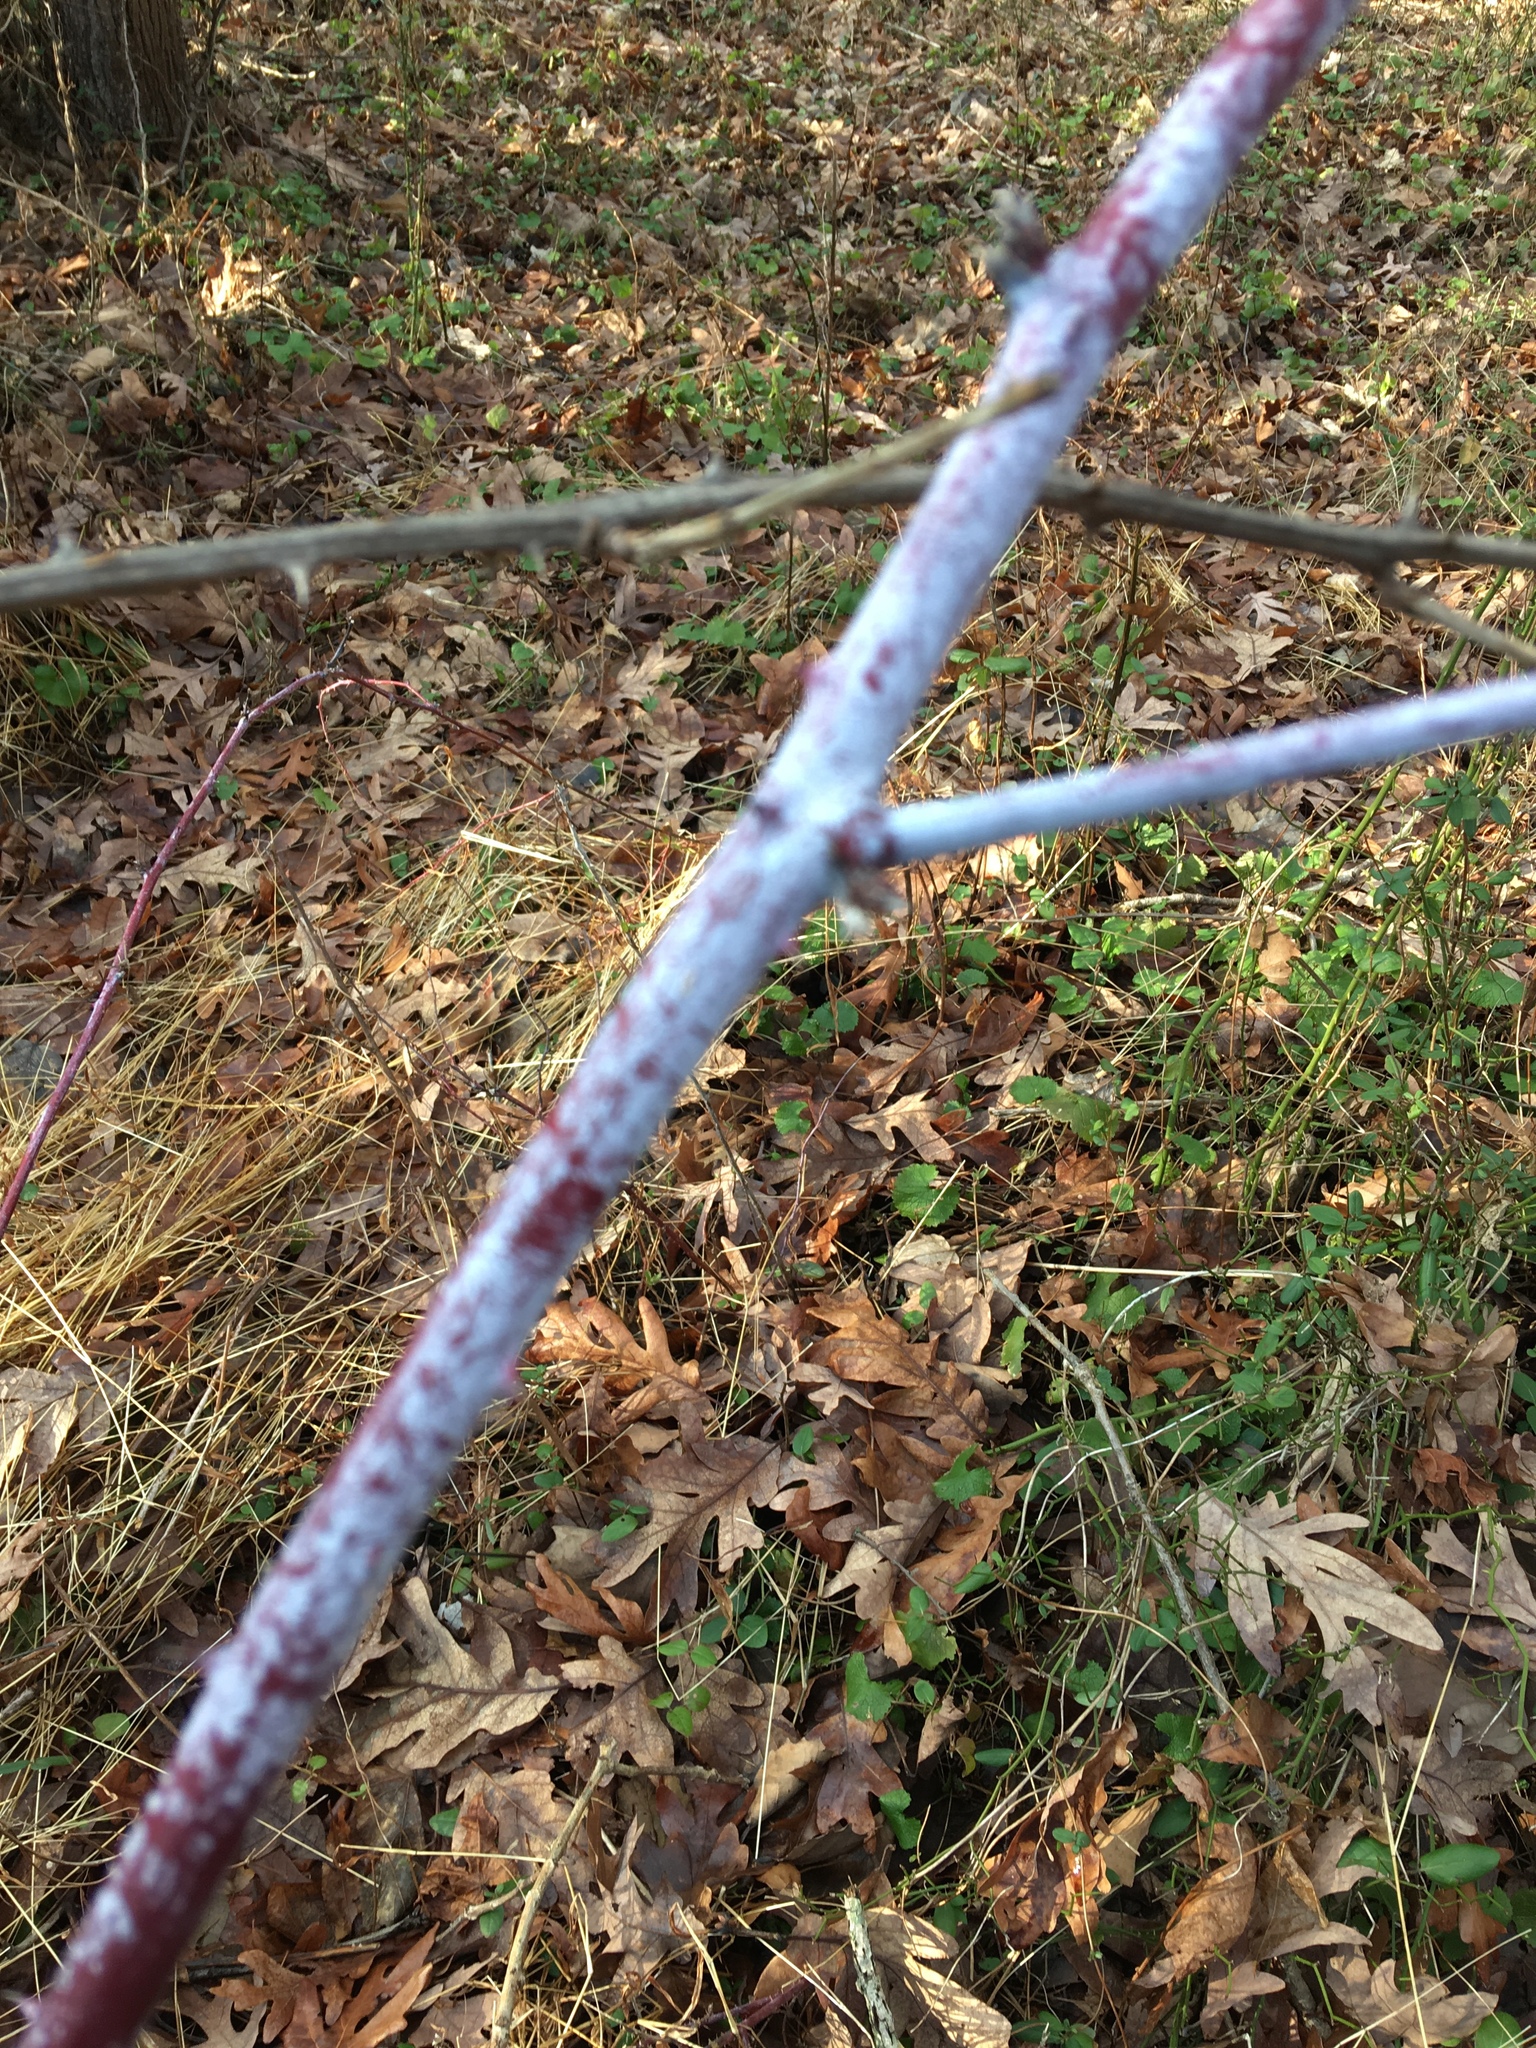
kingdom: Plantae
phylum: Tracheophyta
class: Magnoliopsida
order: Rosales
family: Rosaceae
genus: Rubus
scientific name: Rubus occidentalis
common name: Black raspberry
